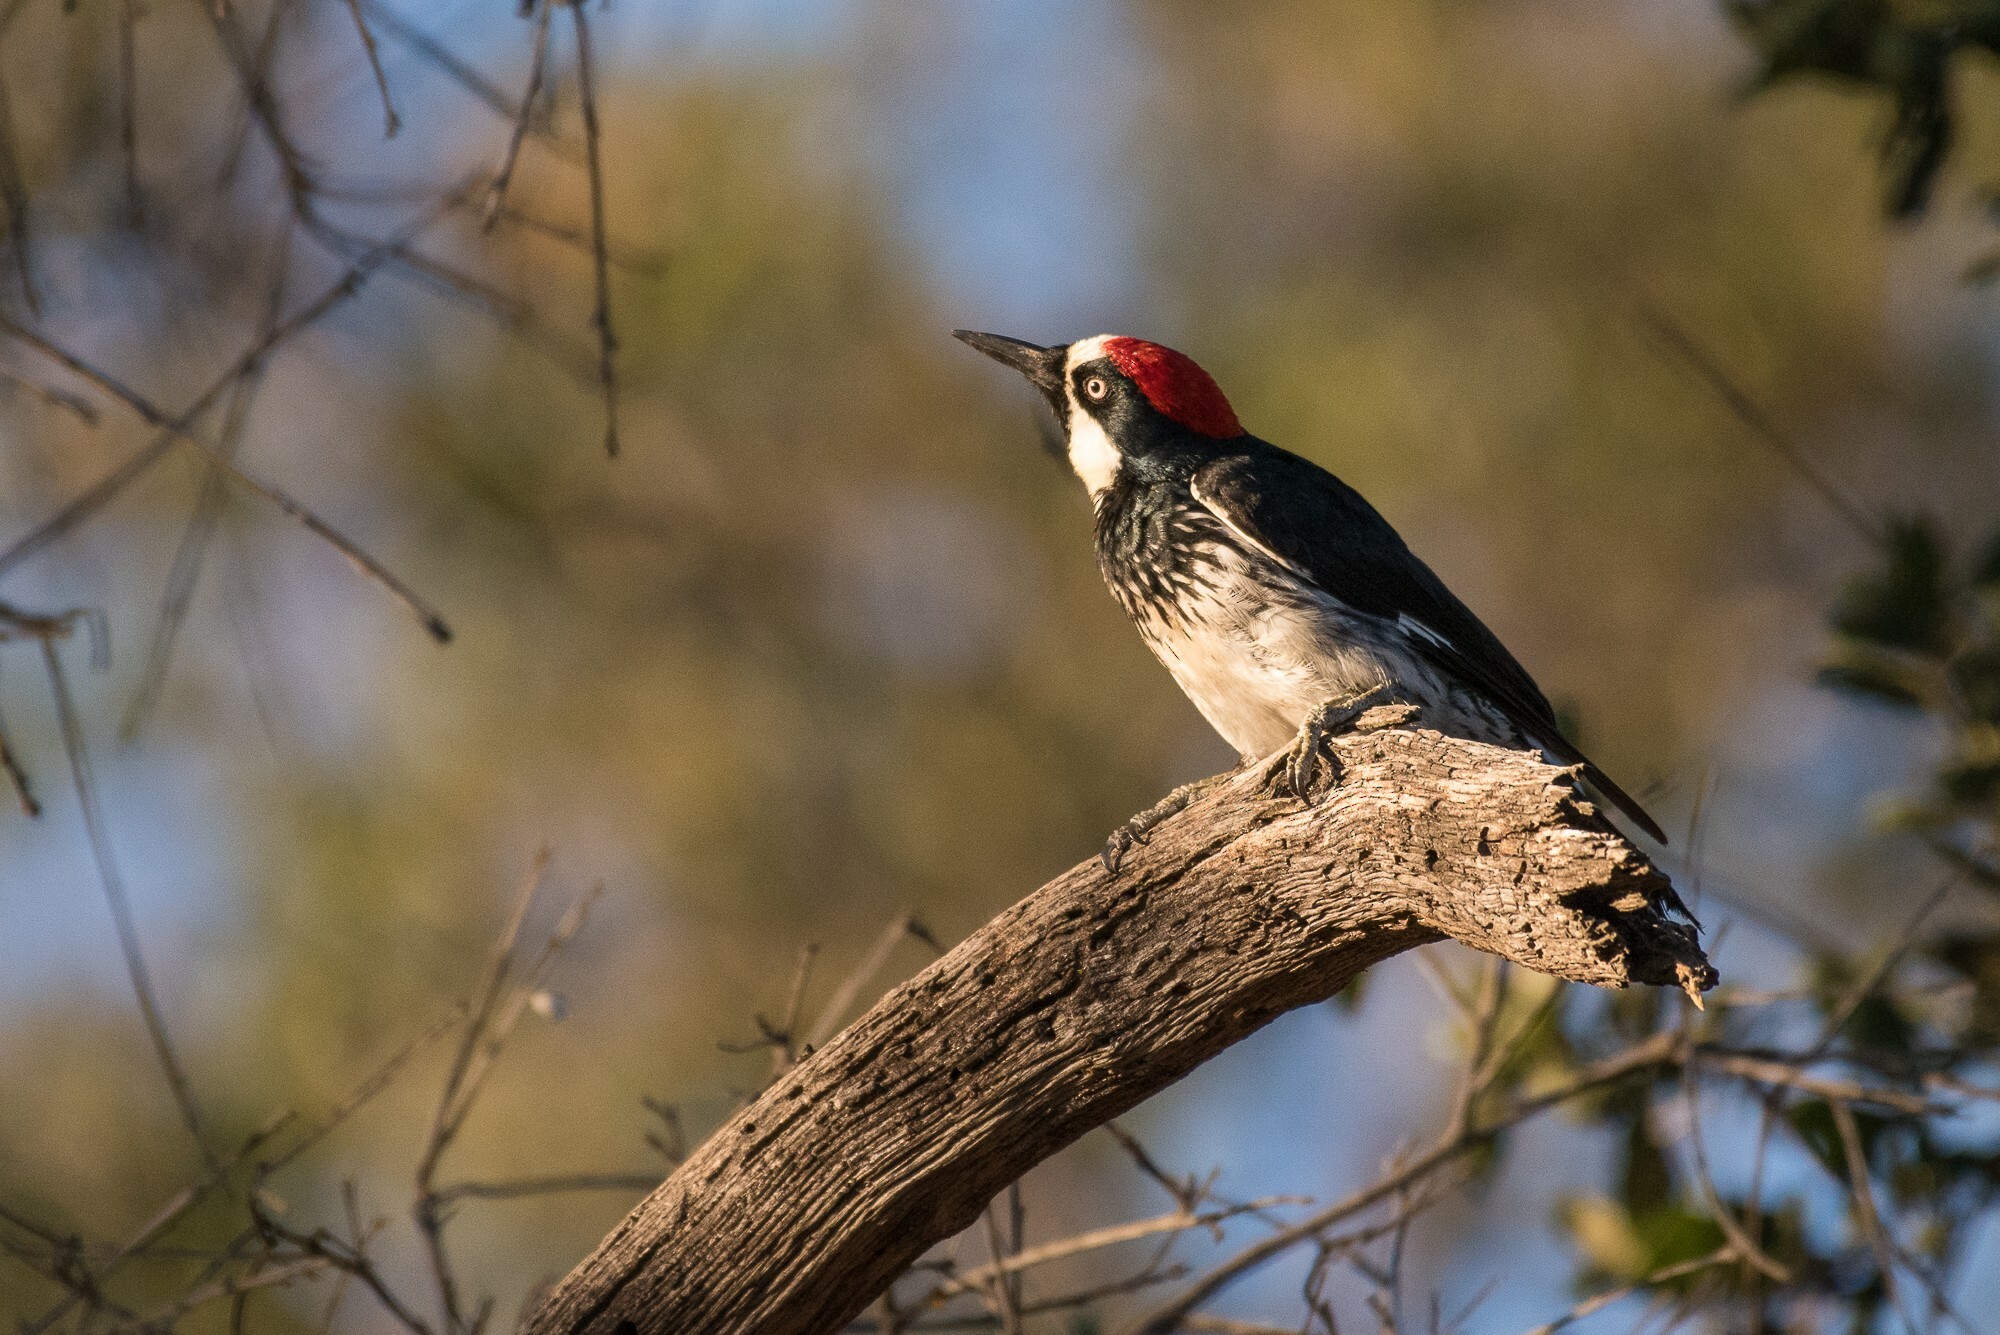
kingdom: Animalia
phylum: Chordata
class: Aves
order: Piciformes
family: Picidae
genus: Melanerpes
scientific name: Melanerpes formicivorus
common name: Acorn woodpecker
